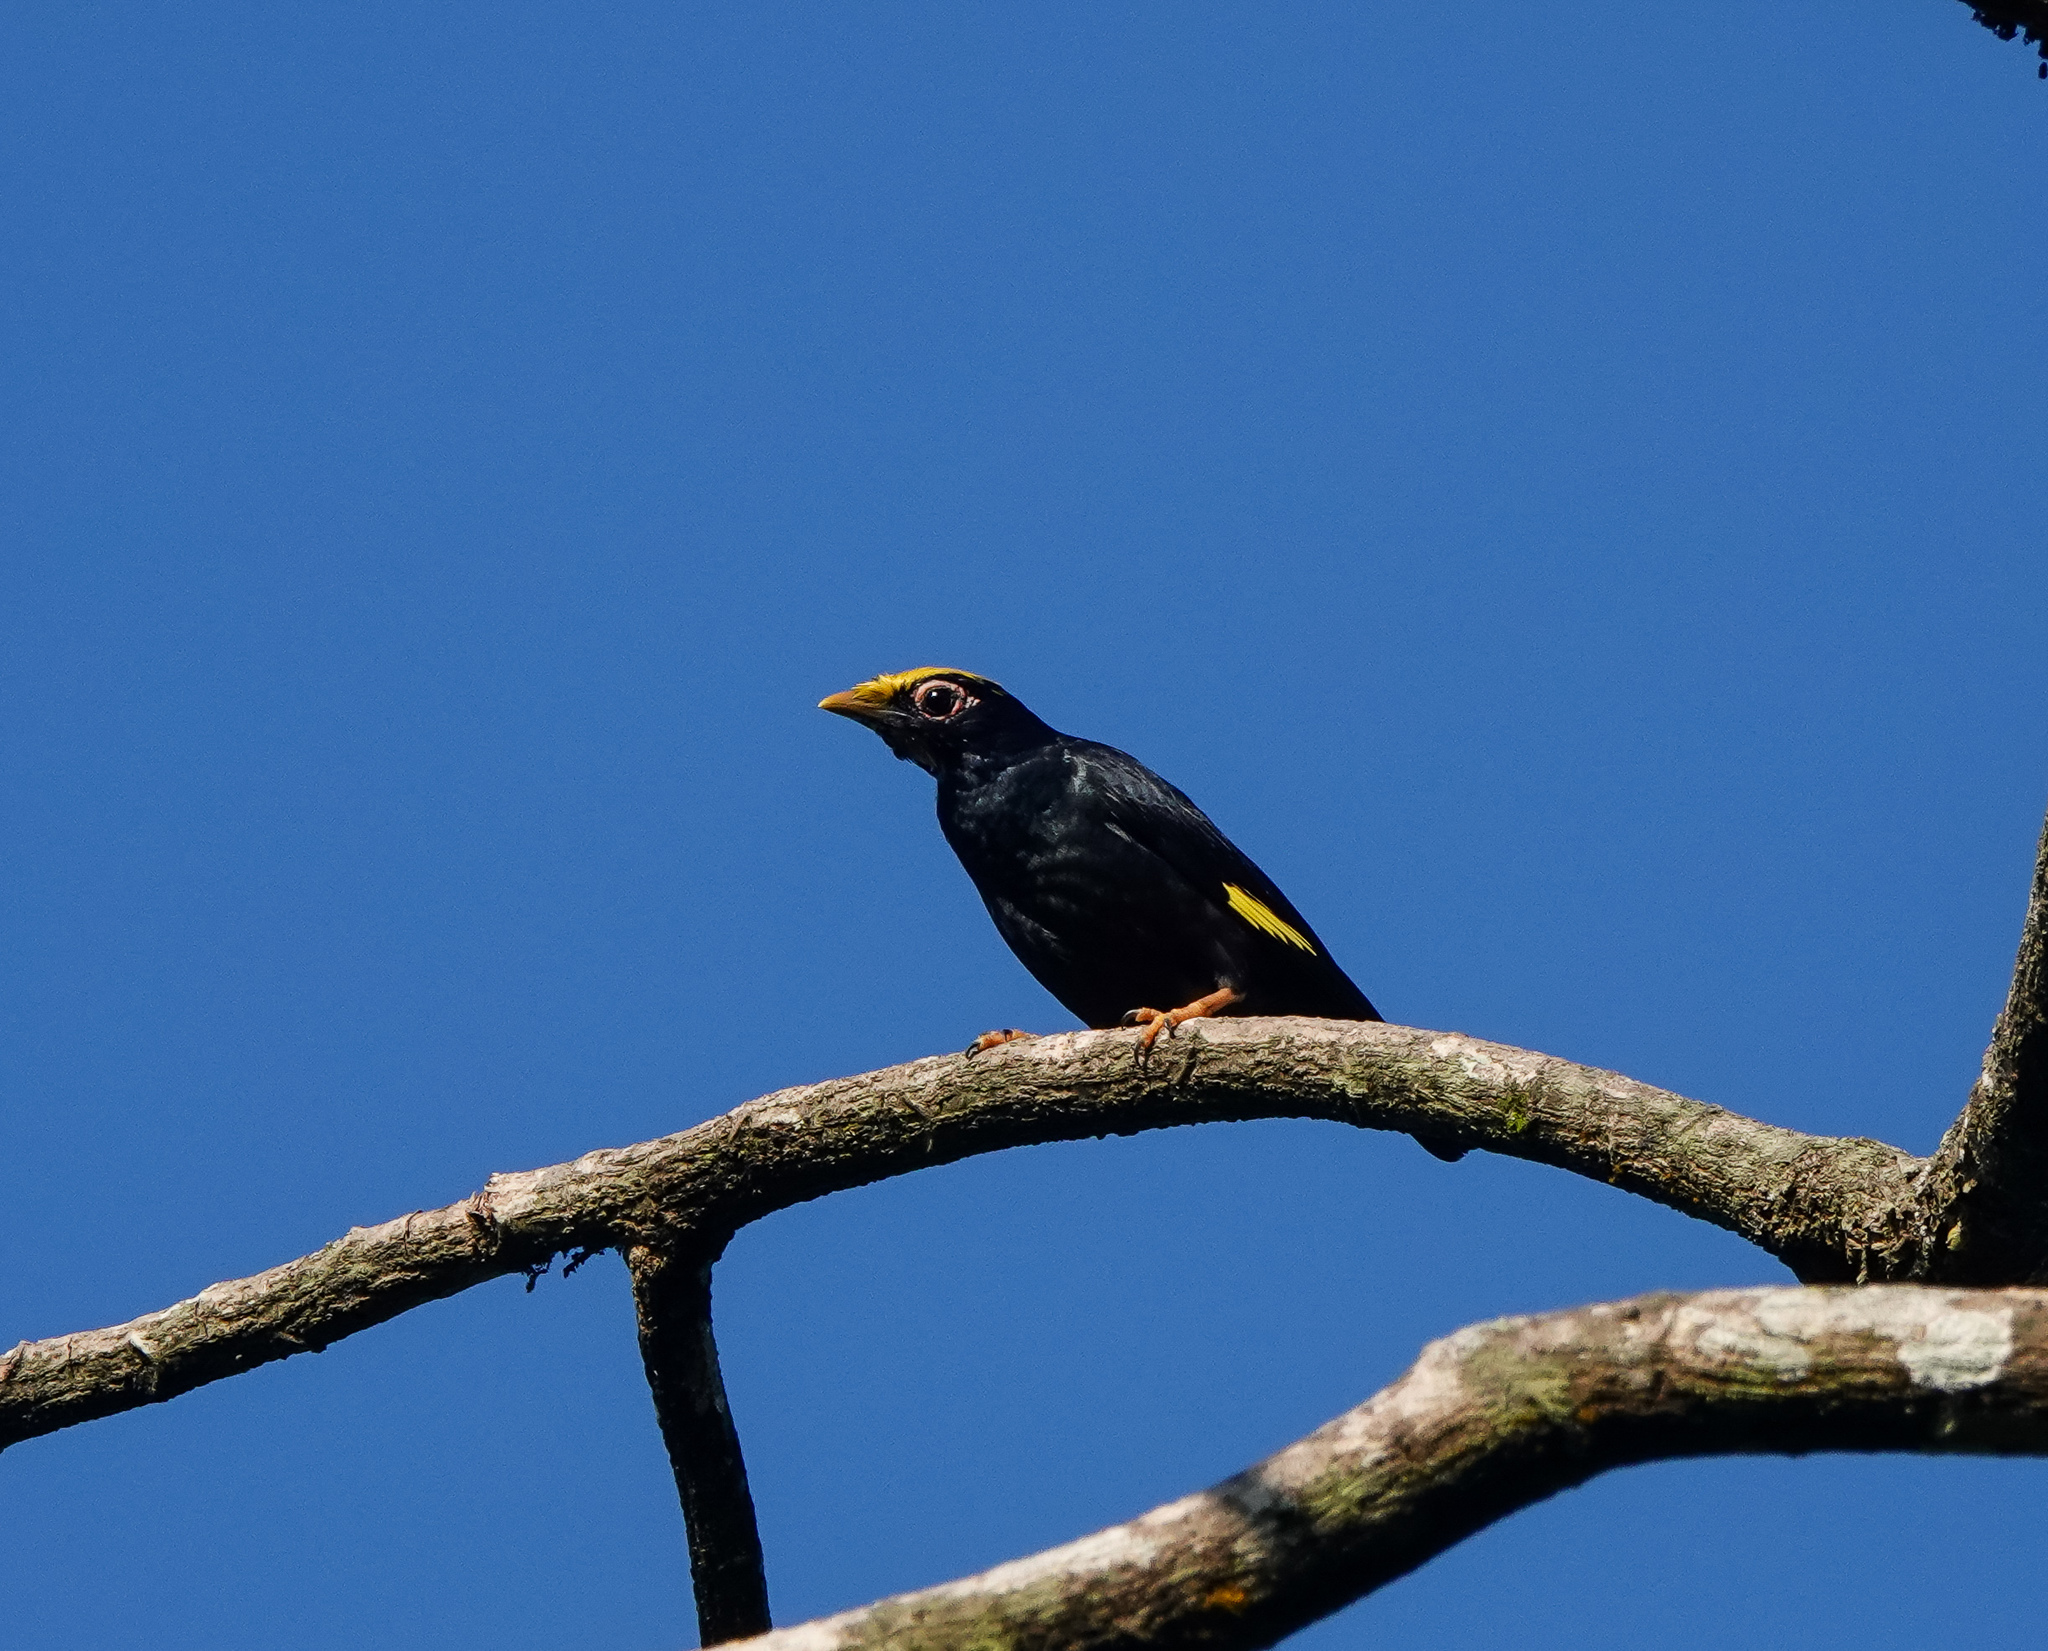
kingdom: Animalia
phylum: Arthropoda
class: Insecta
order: Lepidoptera
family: Geometridae
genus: Dysphania
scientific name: Dysphania militaris
